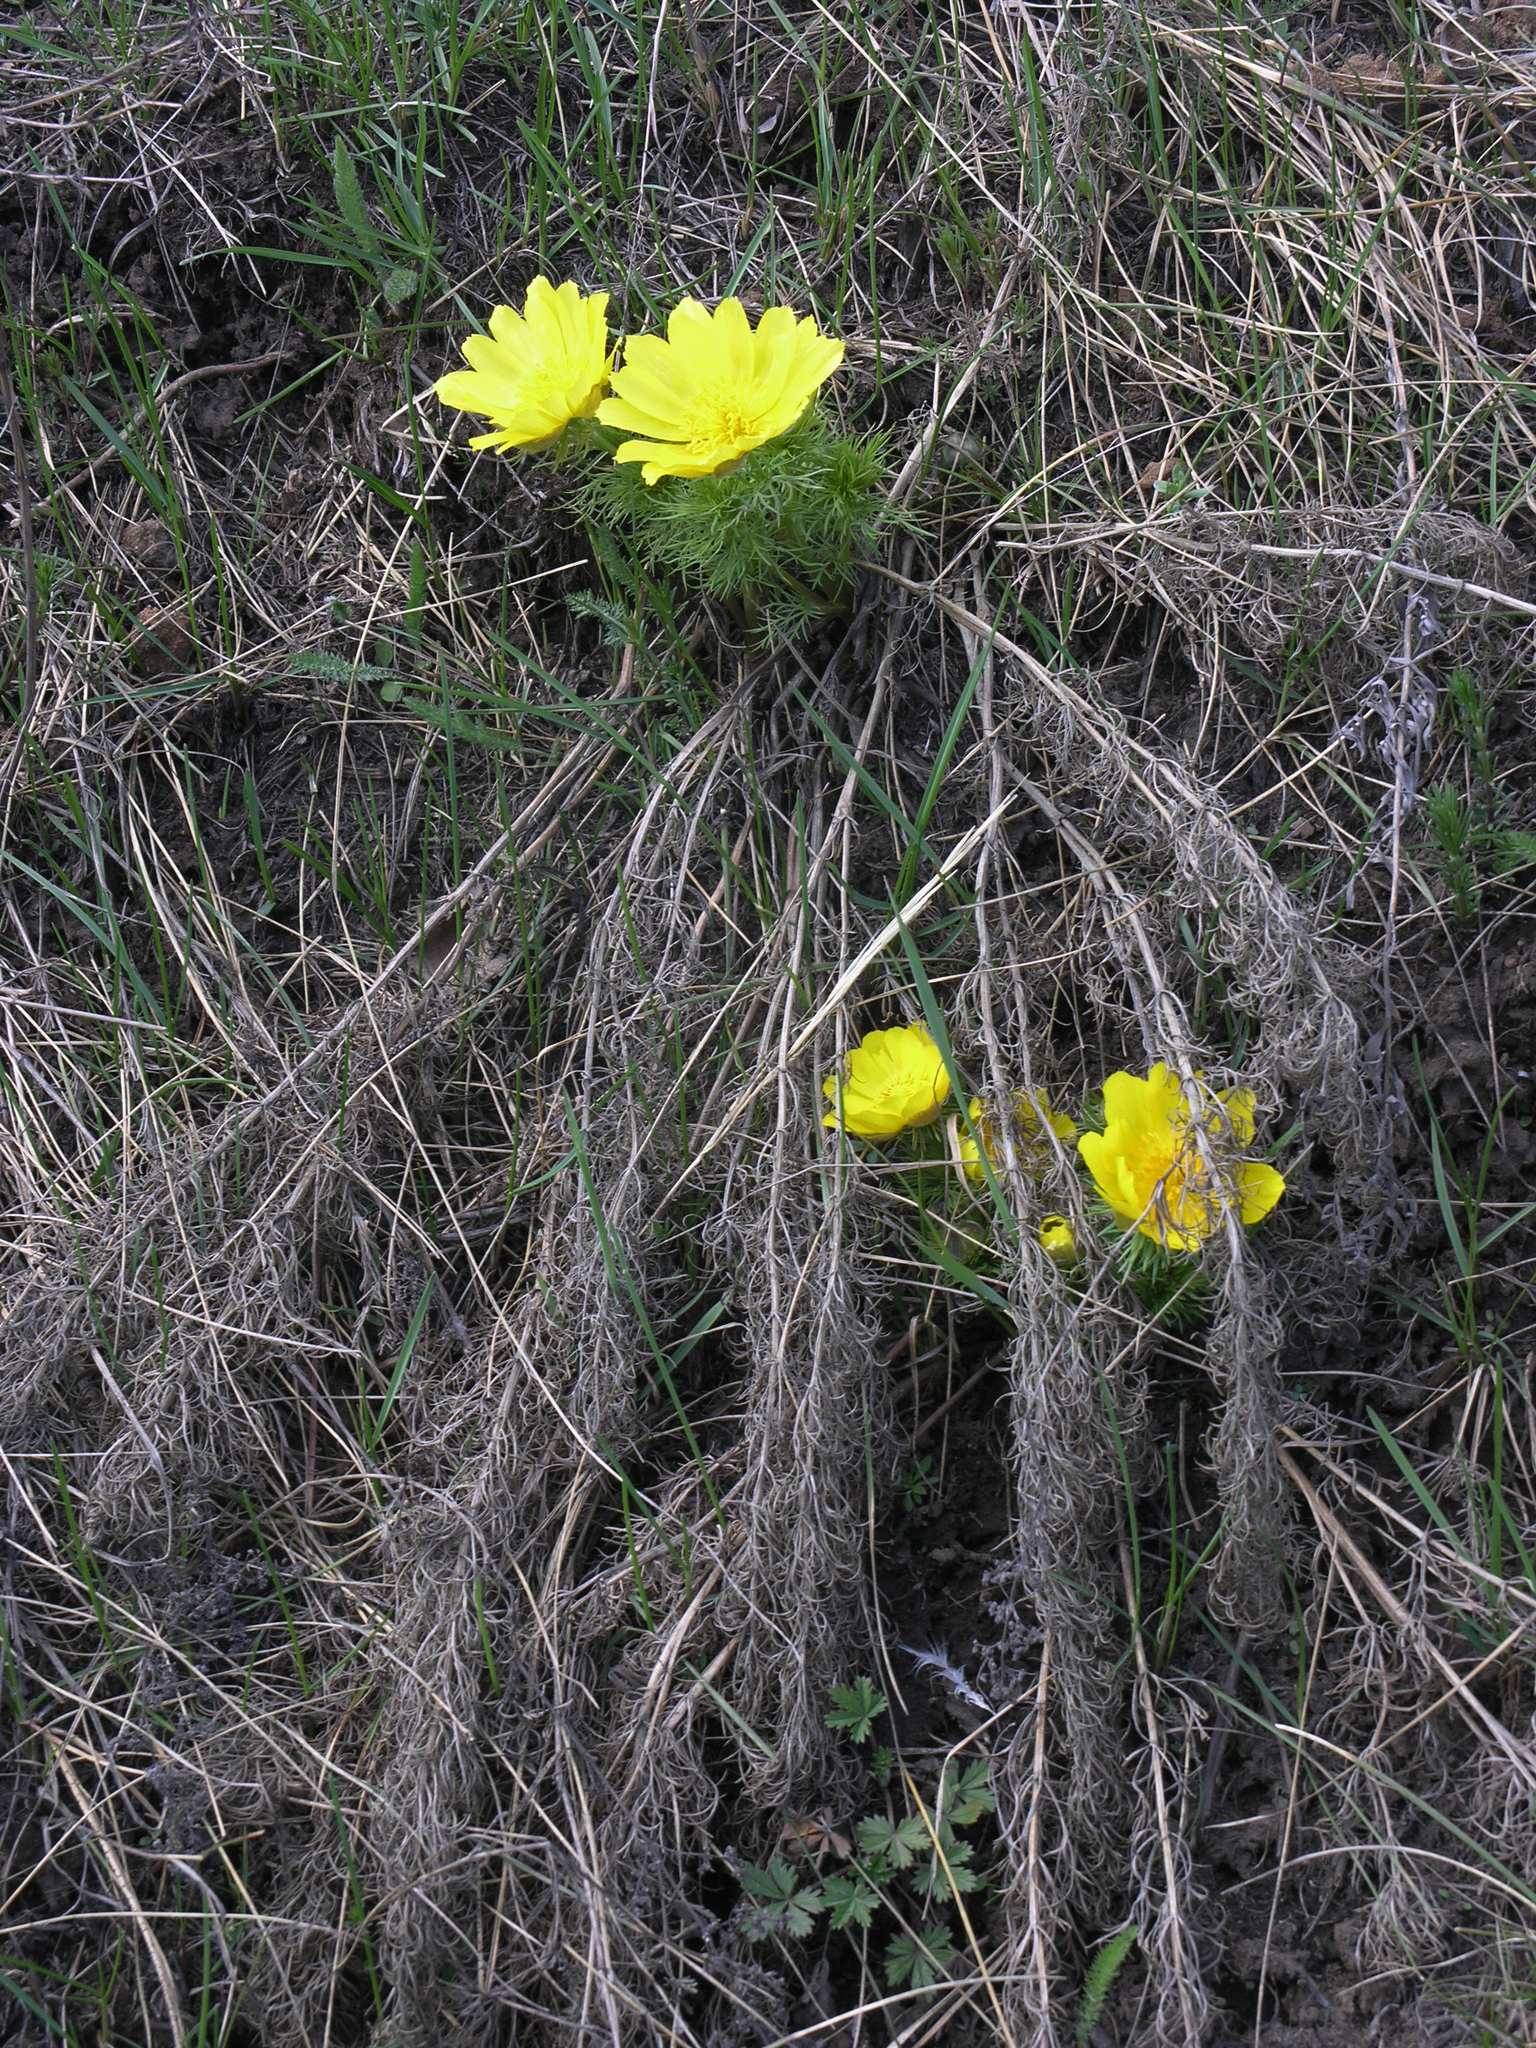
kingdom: Plantae
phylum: Tracheophyta
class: Magnoliopsida
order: Ranunculales
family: Ranunculaceae
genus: Adonis
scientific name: Adonis vernalis
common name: Yellow pheasants-eye
